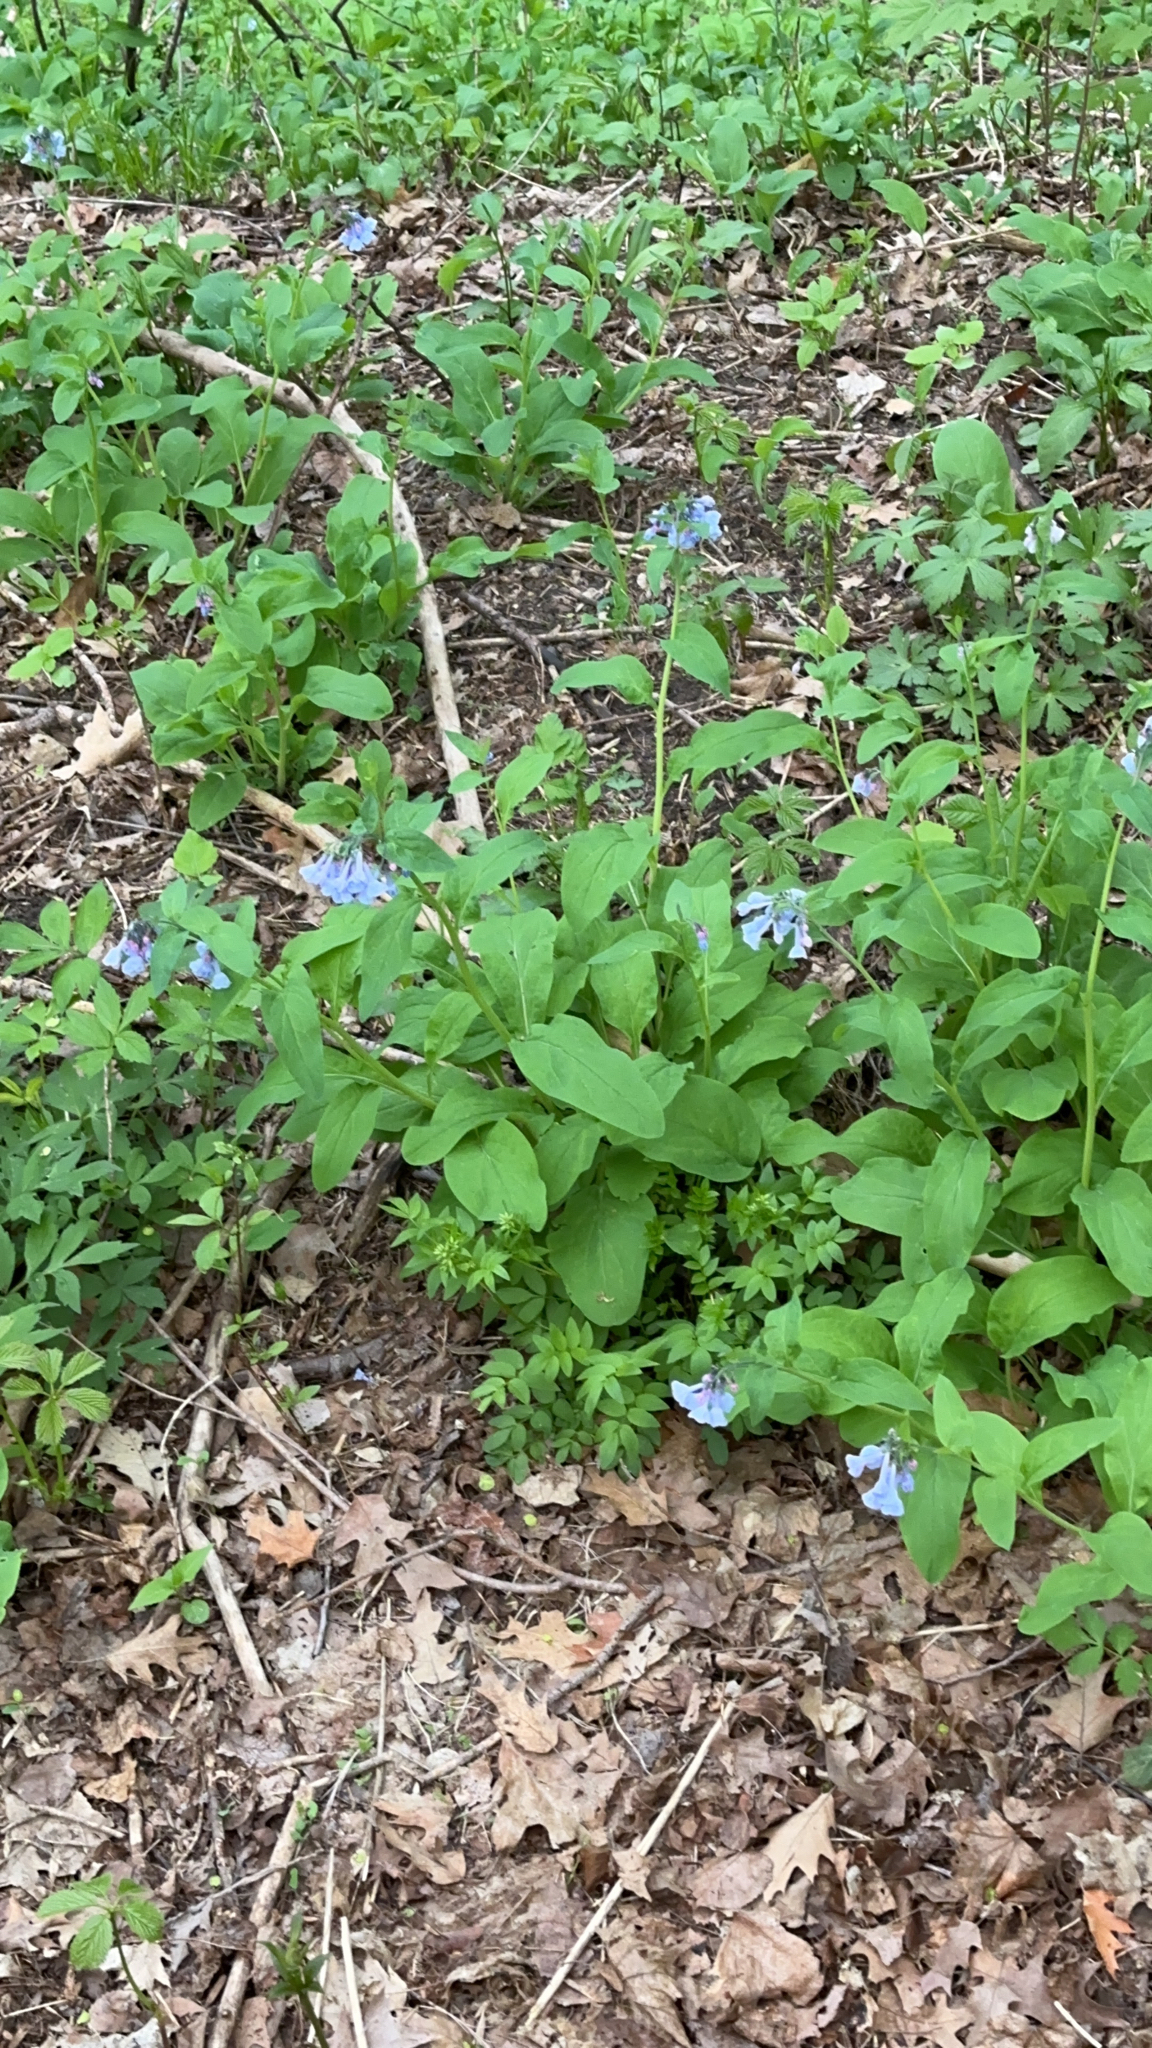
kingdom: Plantae
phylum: Tracheophyta
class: Magnoliopsida
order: Boraginales
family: Boraginaceae
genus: Mertensia
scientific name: Mertensia virginica
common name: Virginia bluebells
